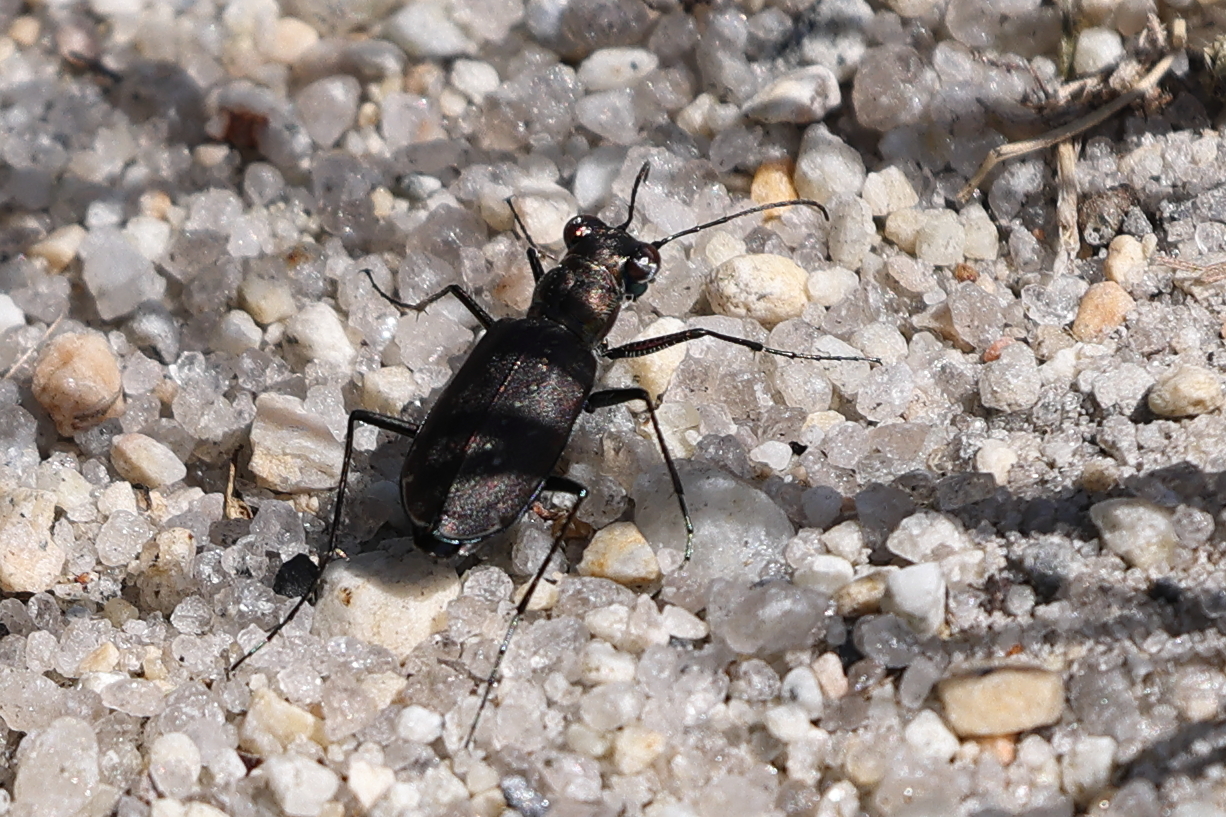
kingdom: Animalia
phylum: Arthropoda
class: Insecta
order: Coleoptera
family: Carabidae
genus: Cicindela
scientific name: Cicindela punctulata
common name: Punctured tiger beetle
